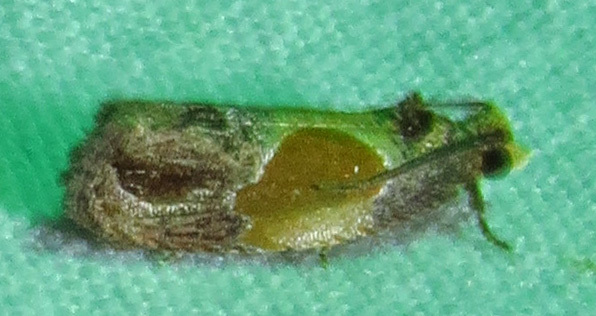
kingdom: Animalia
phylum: Arthropoda
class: Insecta
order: Lepidoptera
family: Tortricidae
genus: Eumarozia
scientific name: Eumarozia malachitana
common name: Sculptured moth
